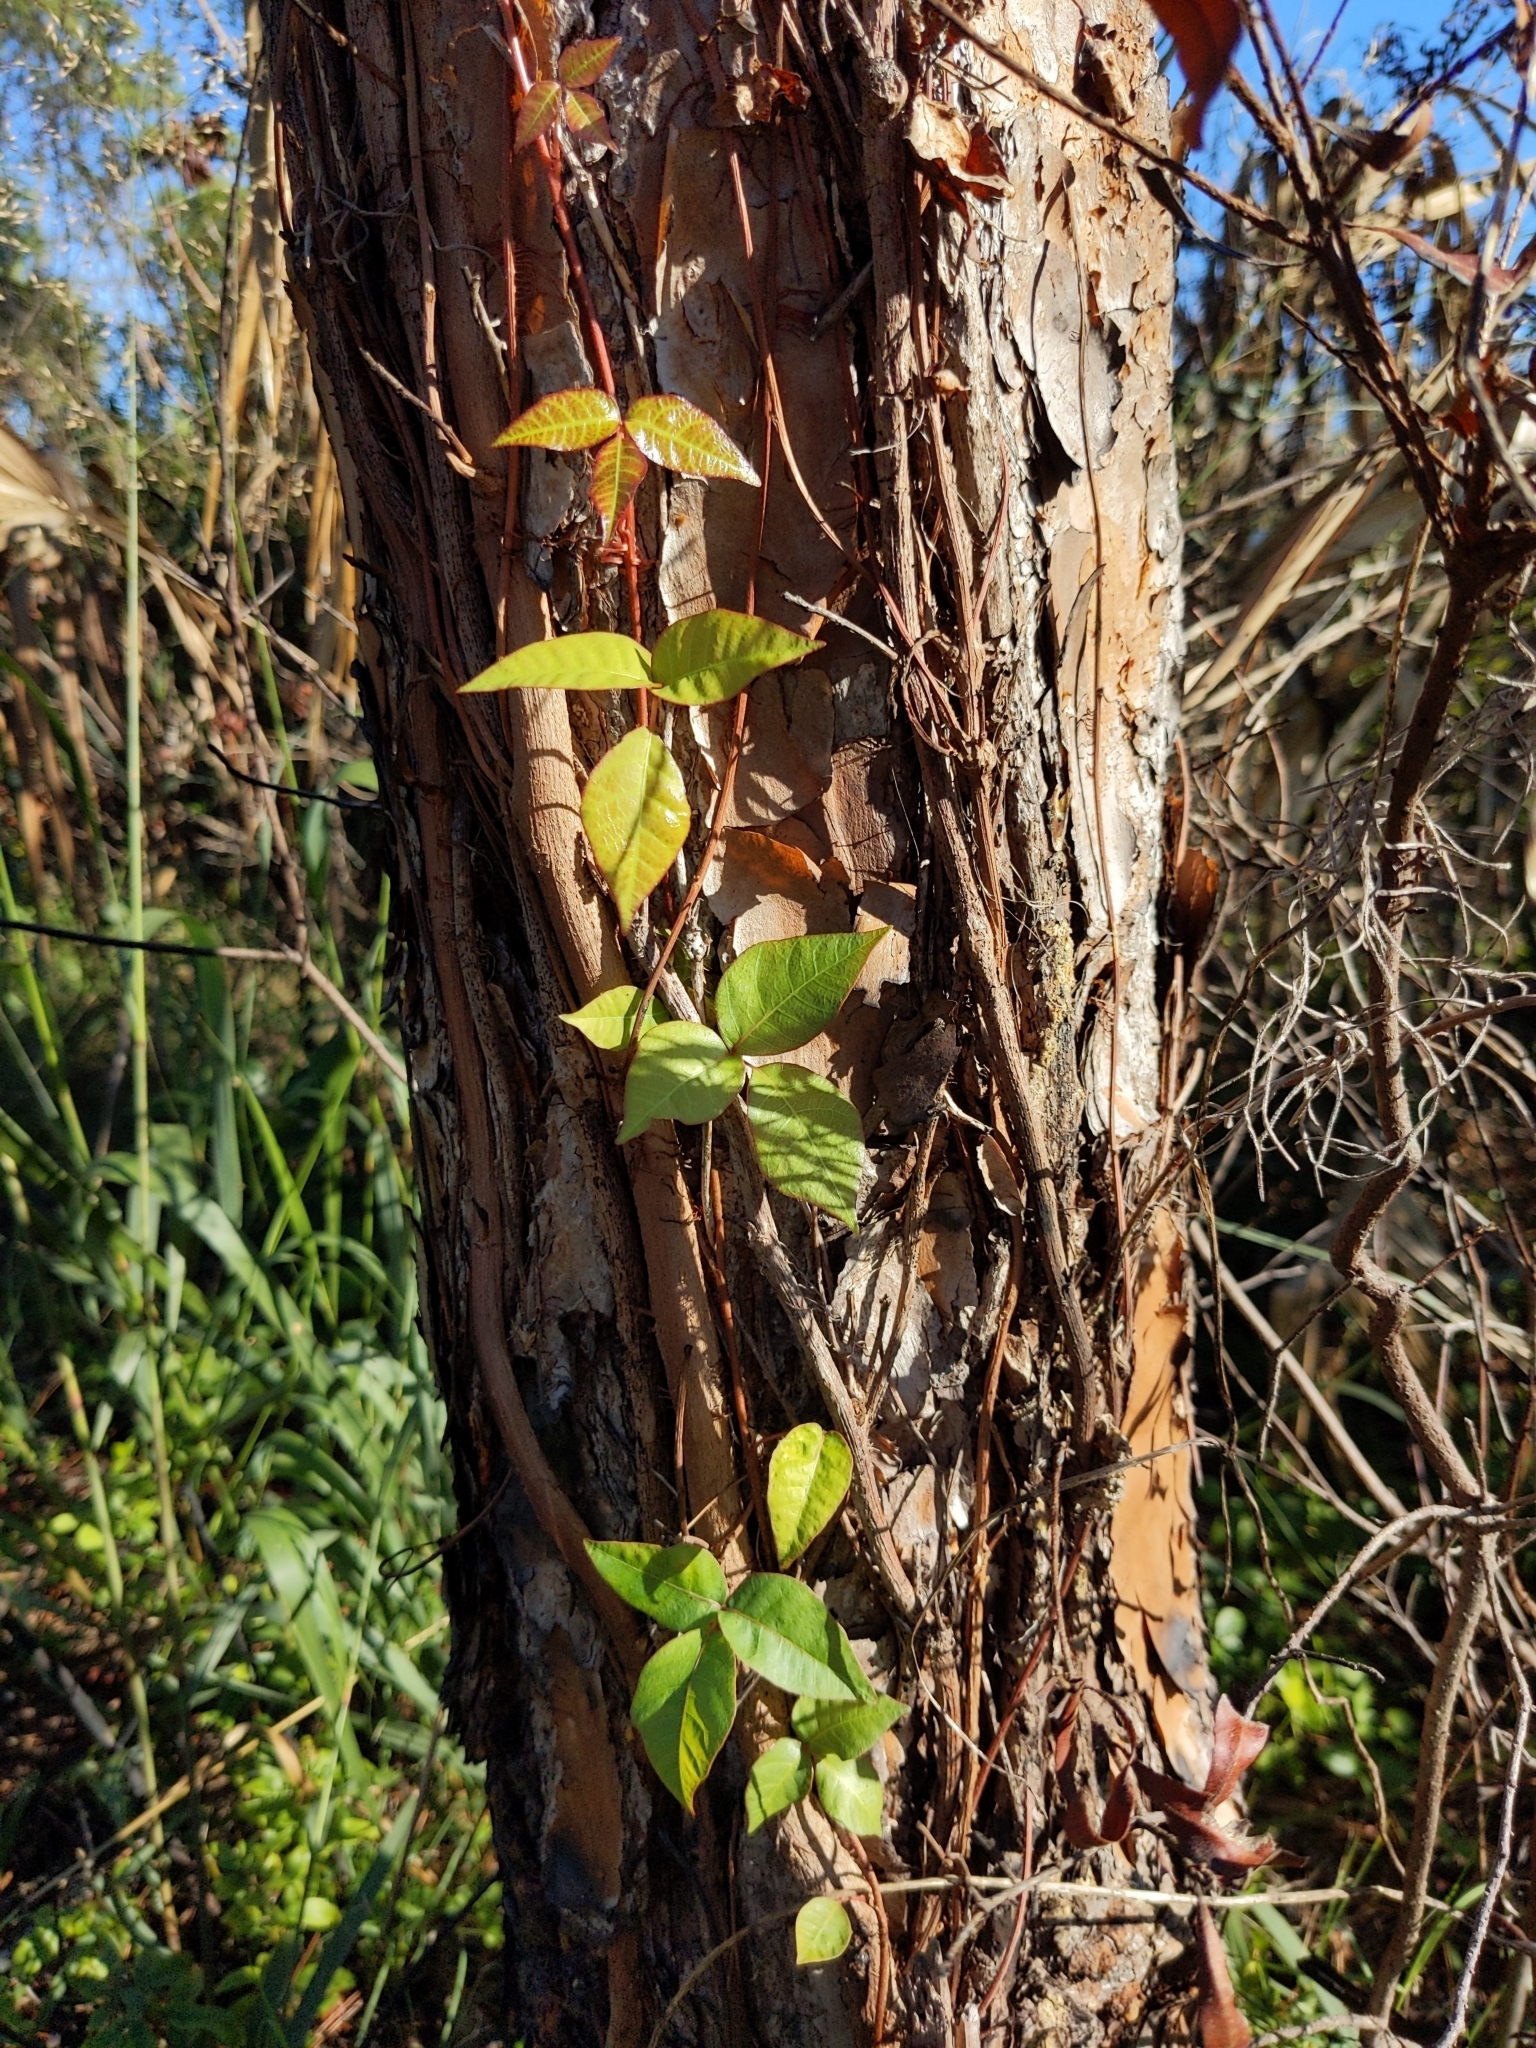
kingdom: Plantae
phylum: Tracheophyta
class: Magnoliopsida
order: Sapindales
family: Anacardiaceae
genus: Toxicodendron
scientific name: Toxicodendron radicans
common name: Poison ivy
